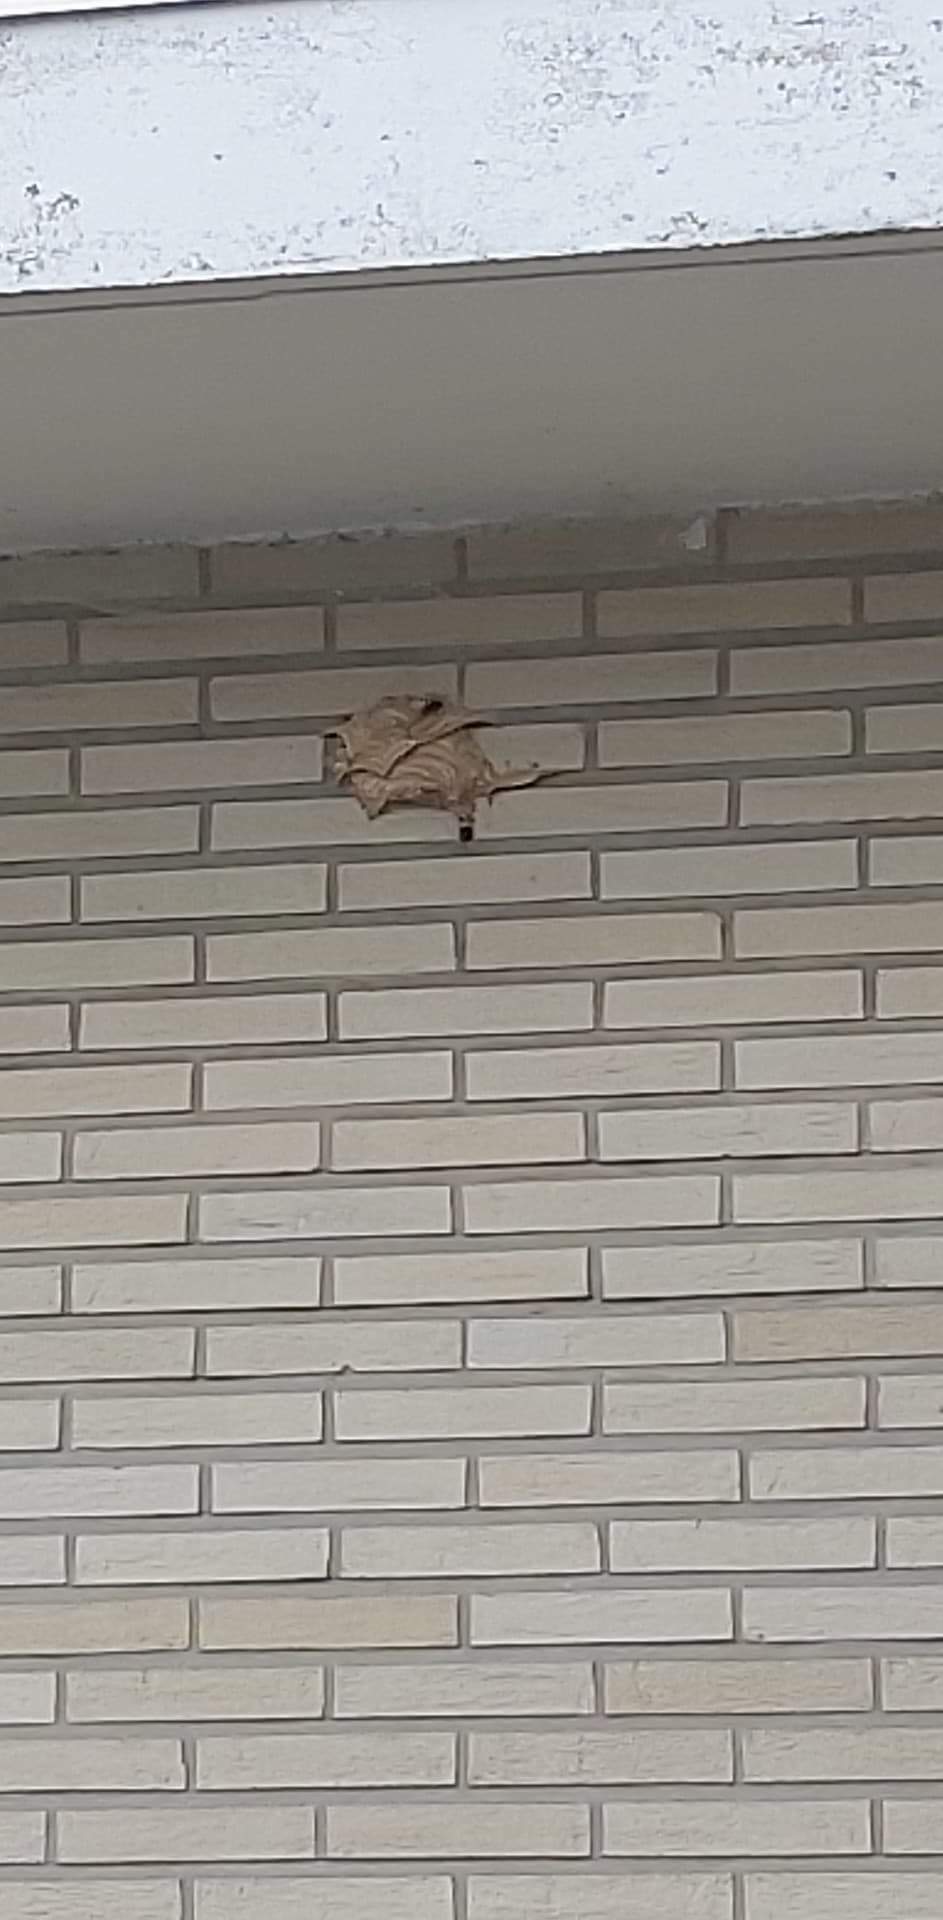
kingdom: Animalia
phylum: Arthropoda
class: Insecta
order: Hymenoptera
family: Vespidae
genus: Vespa
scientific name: Vespa velutina
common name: Asian hornet
